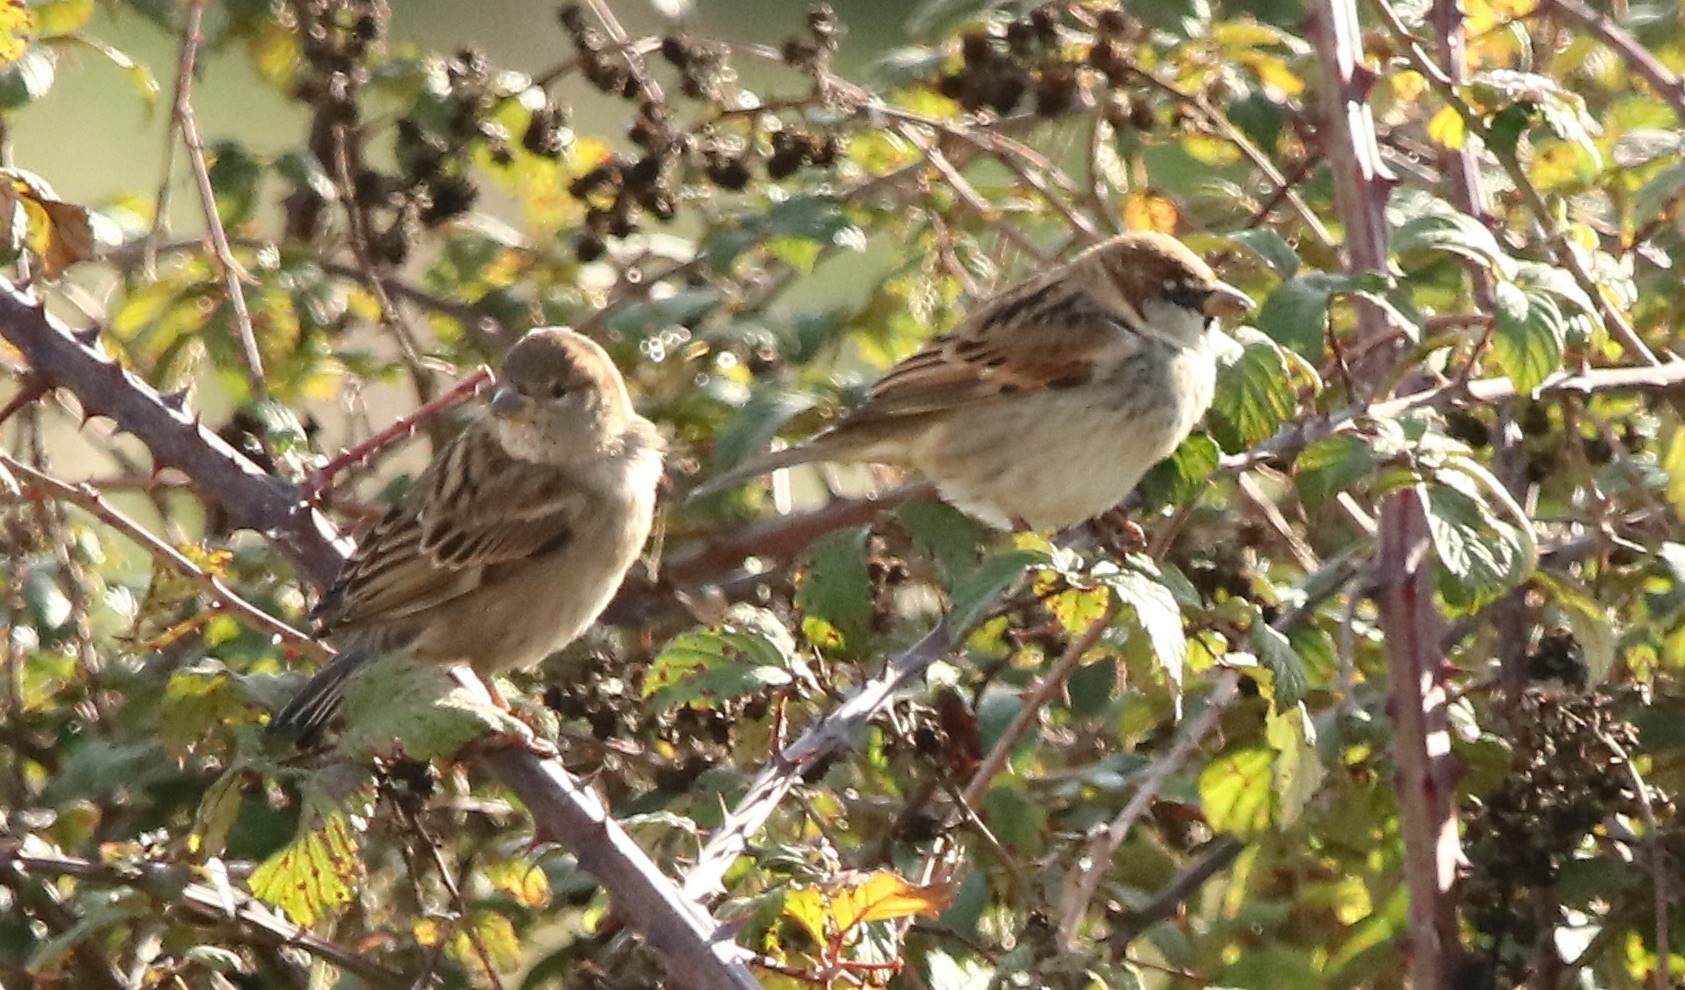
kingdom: Animalia
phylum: Chordata
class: Aves
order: Passeriformes
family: Passeridae
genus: Passer
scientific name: Passer hispaniolensis
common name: Spanish sparrow
